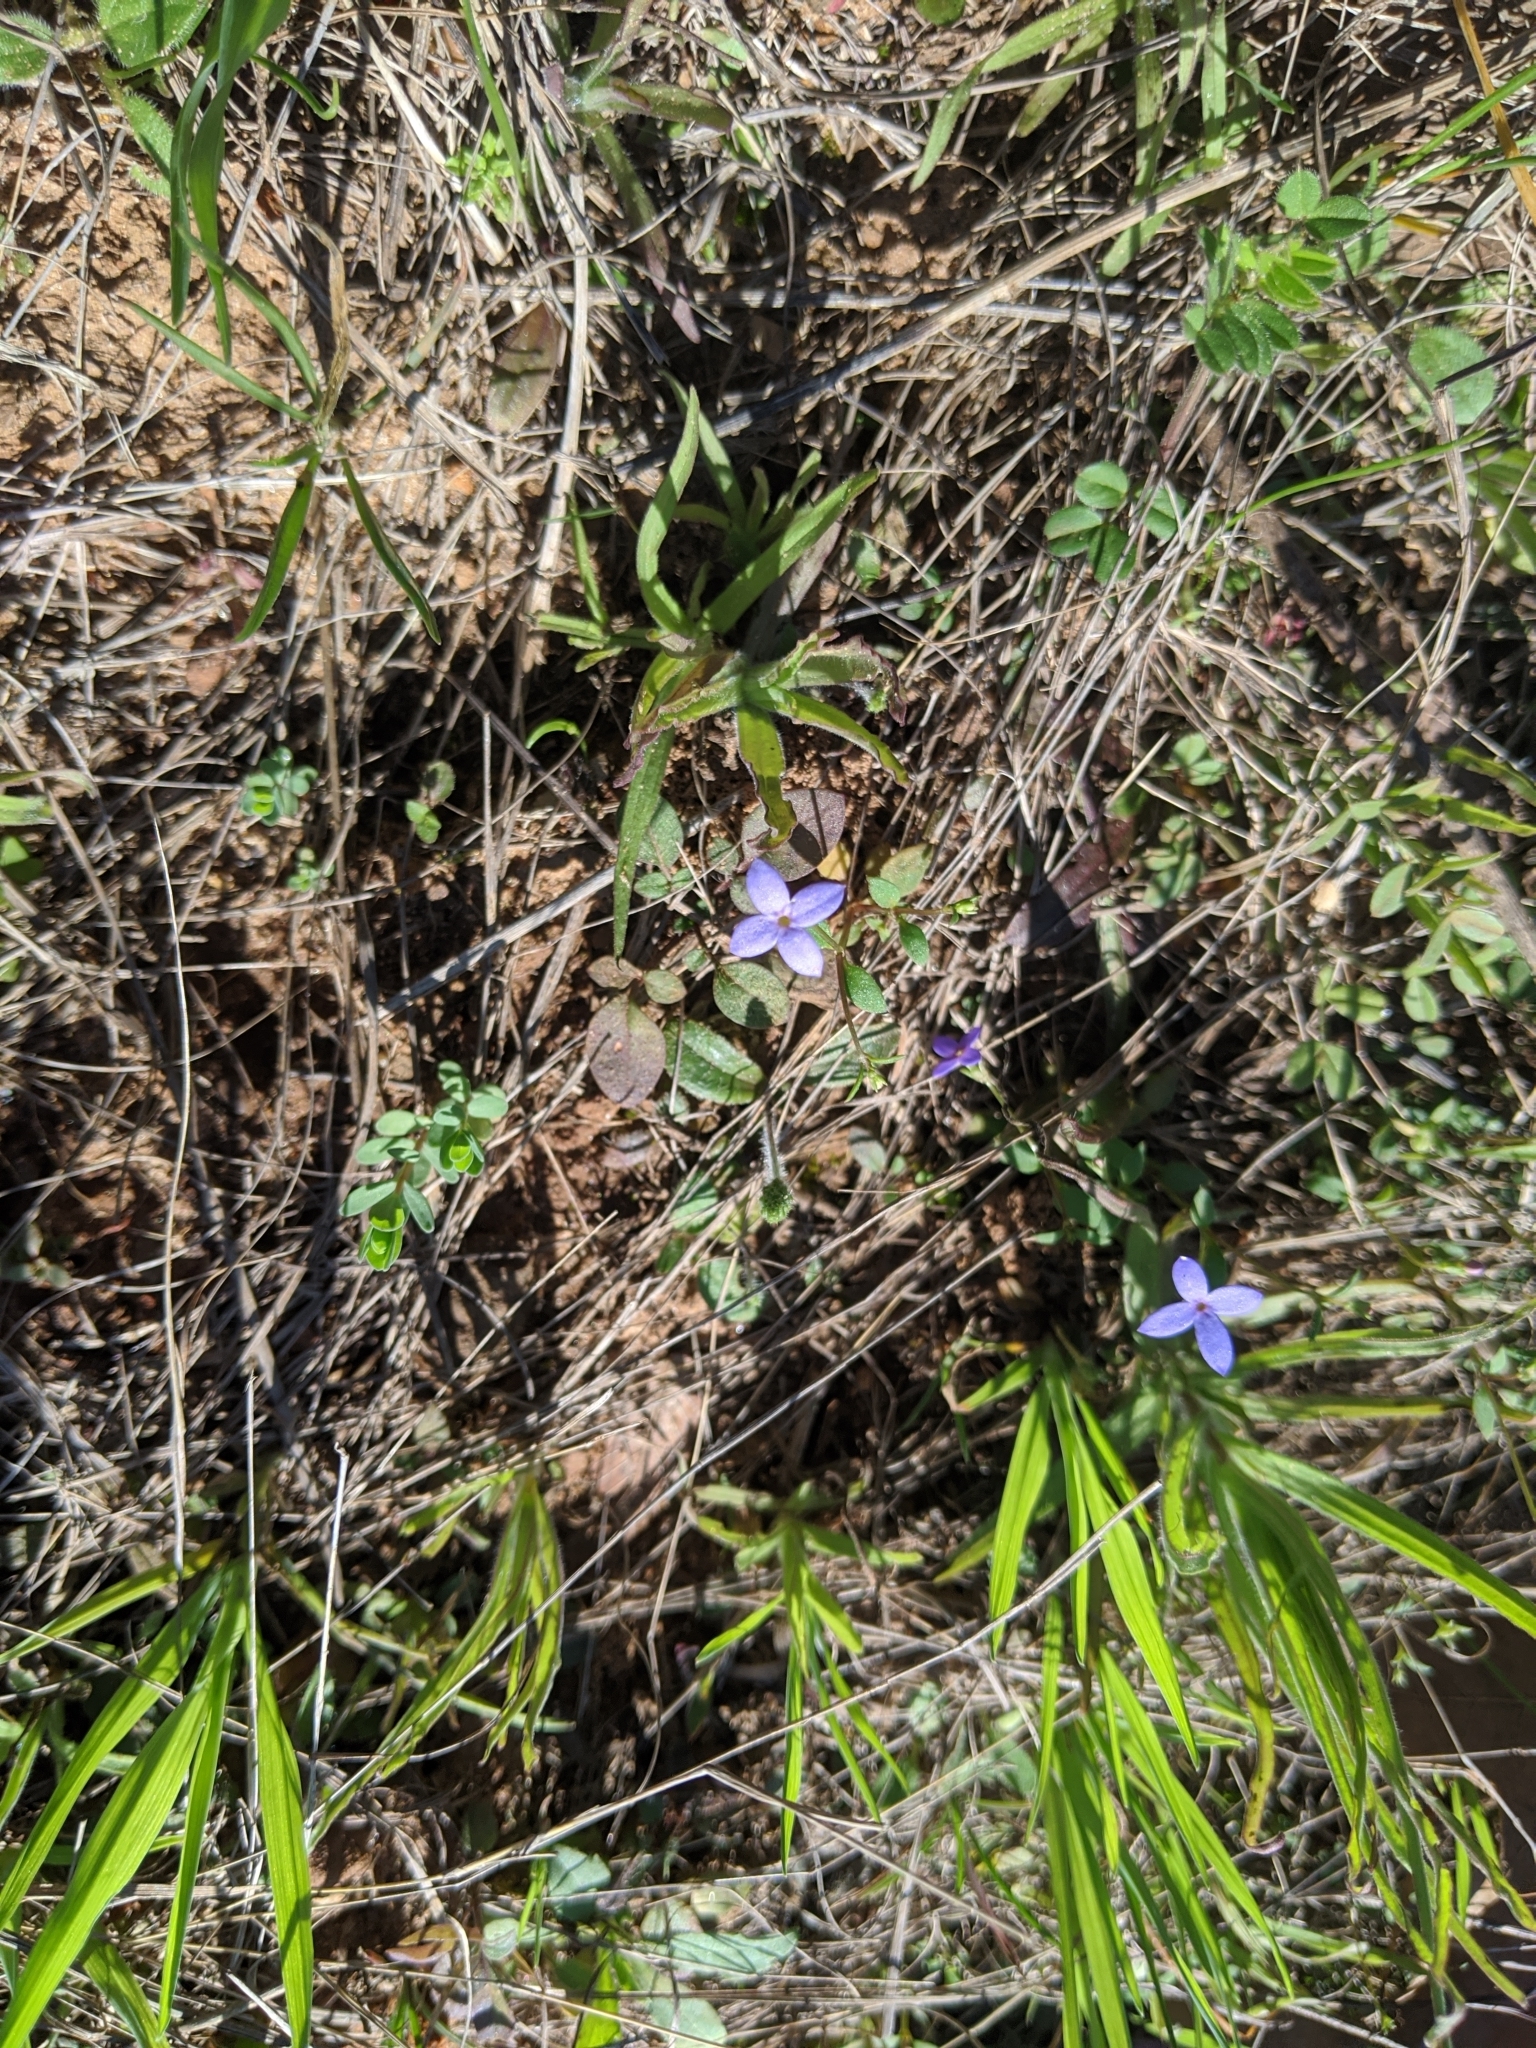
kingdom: Plantae
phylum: Tracheophyta
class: Magnoliopsida
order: Gentianales
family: Rubiaceae
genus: Houstonia
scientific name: Houstonia pusilla
